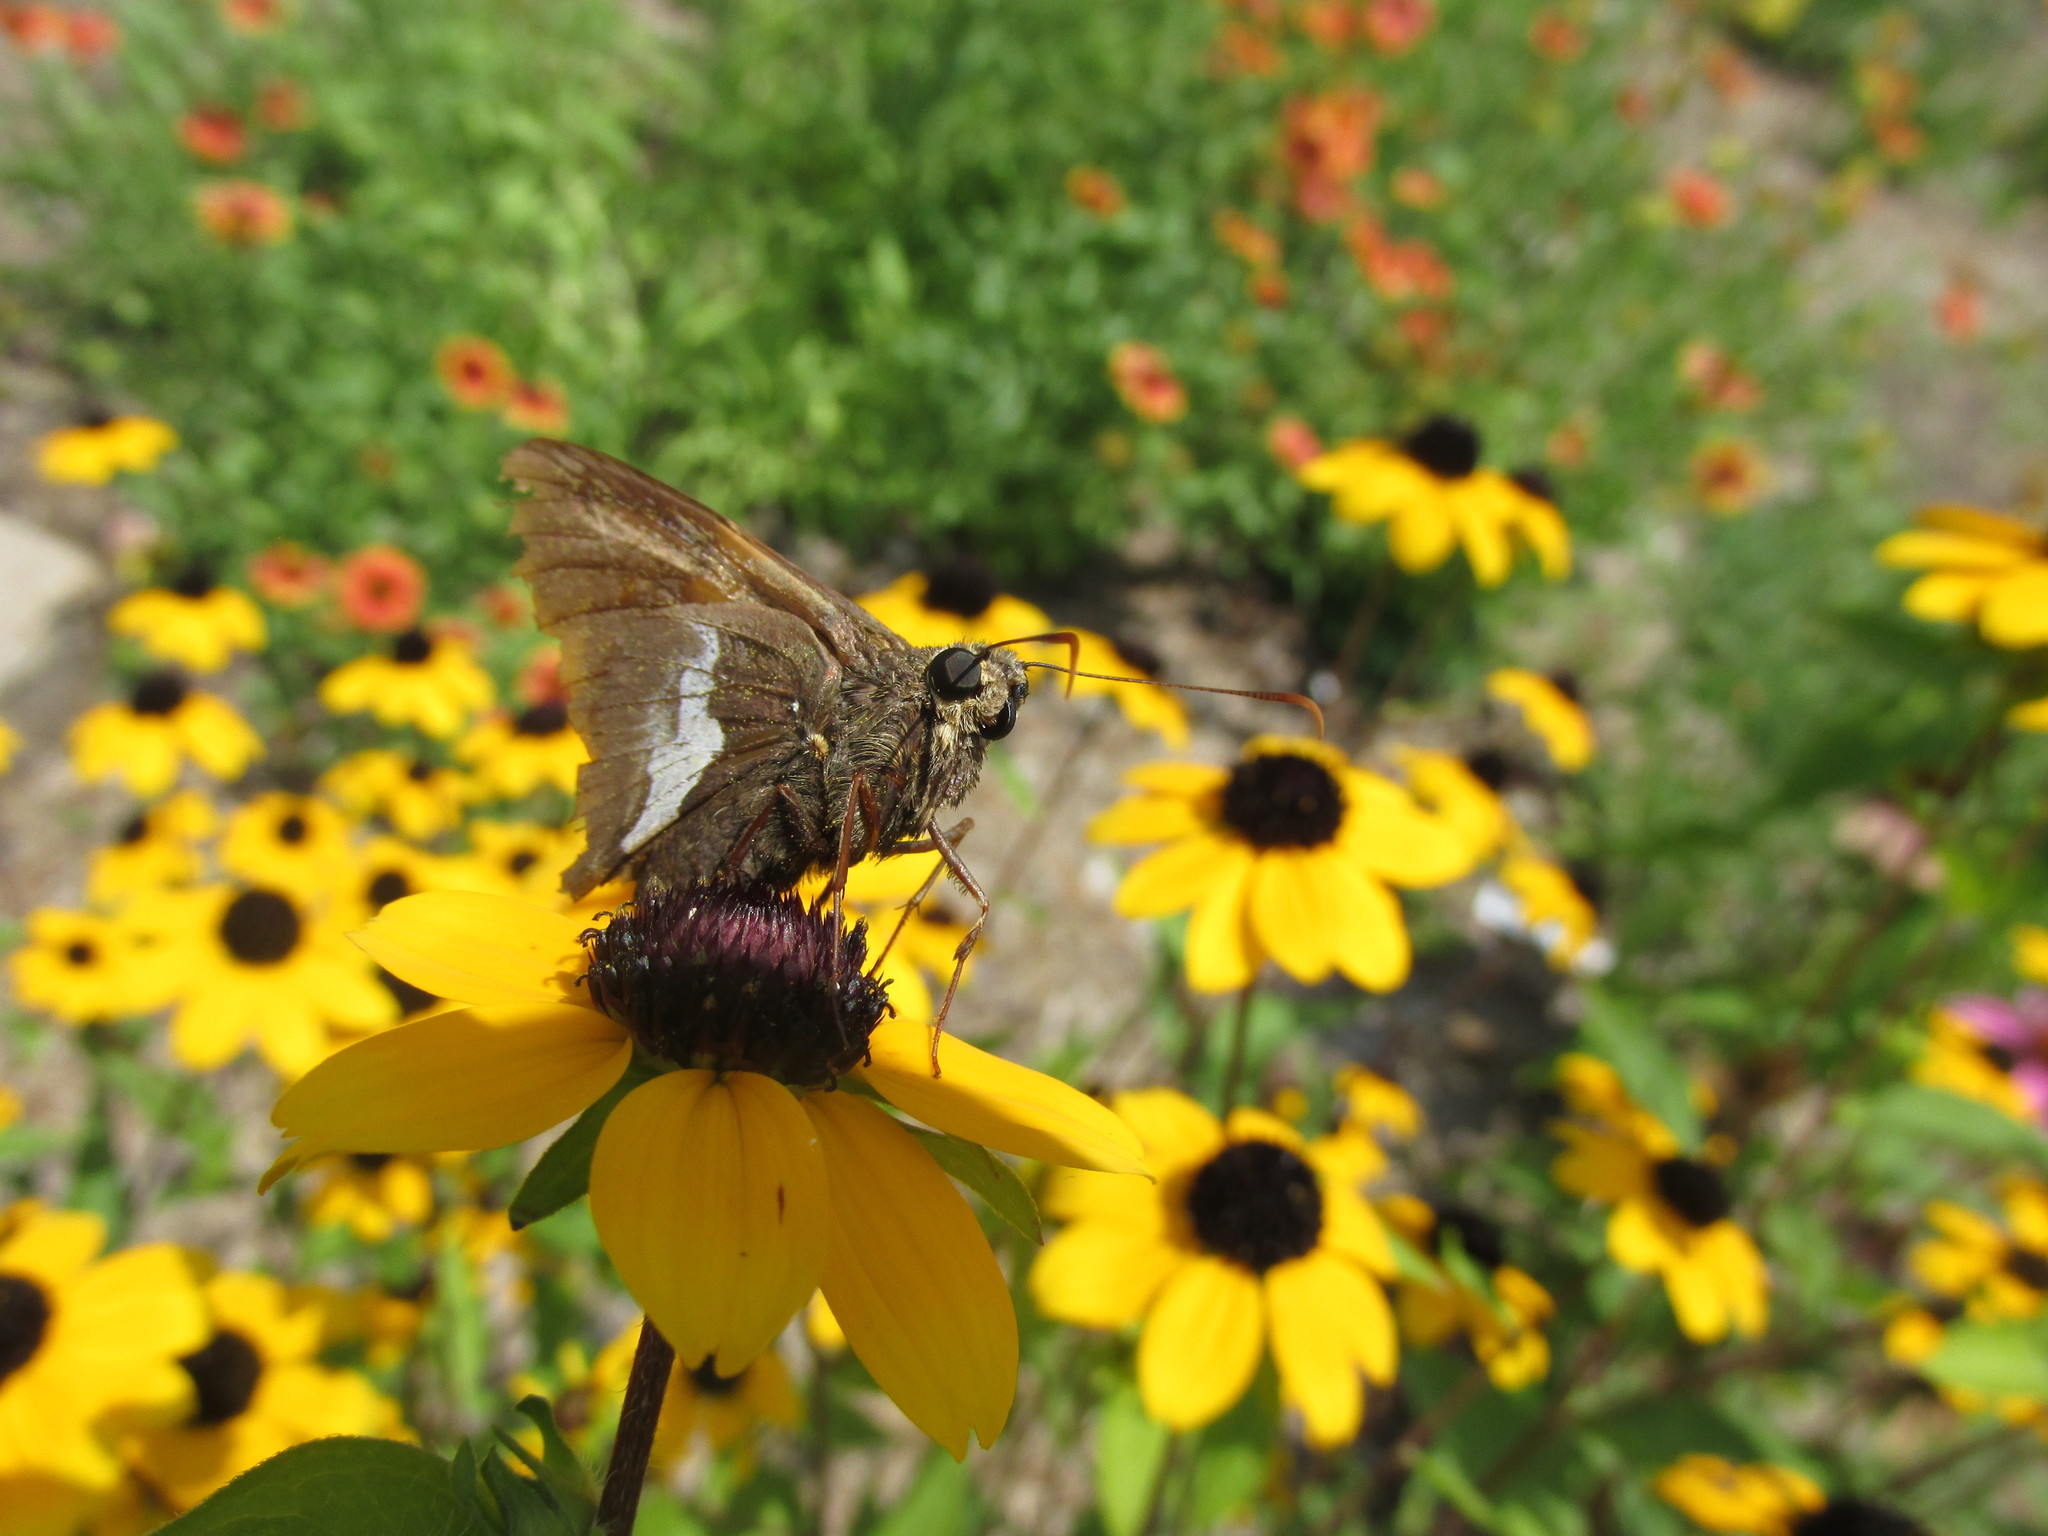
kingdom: Animalia
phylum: Arthropoda
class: Insecta
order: Lepidoptera
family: Hesperiidae
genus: Epargyreus
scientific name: Epargyreus clarus
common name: Silver-spotted skipper
